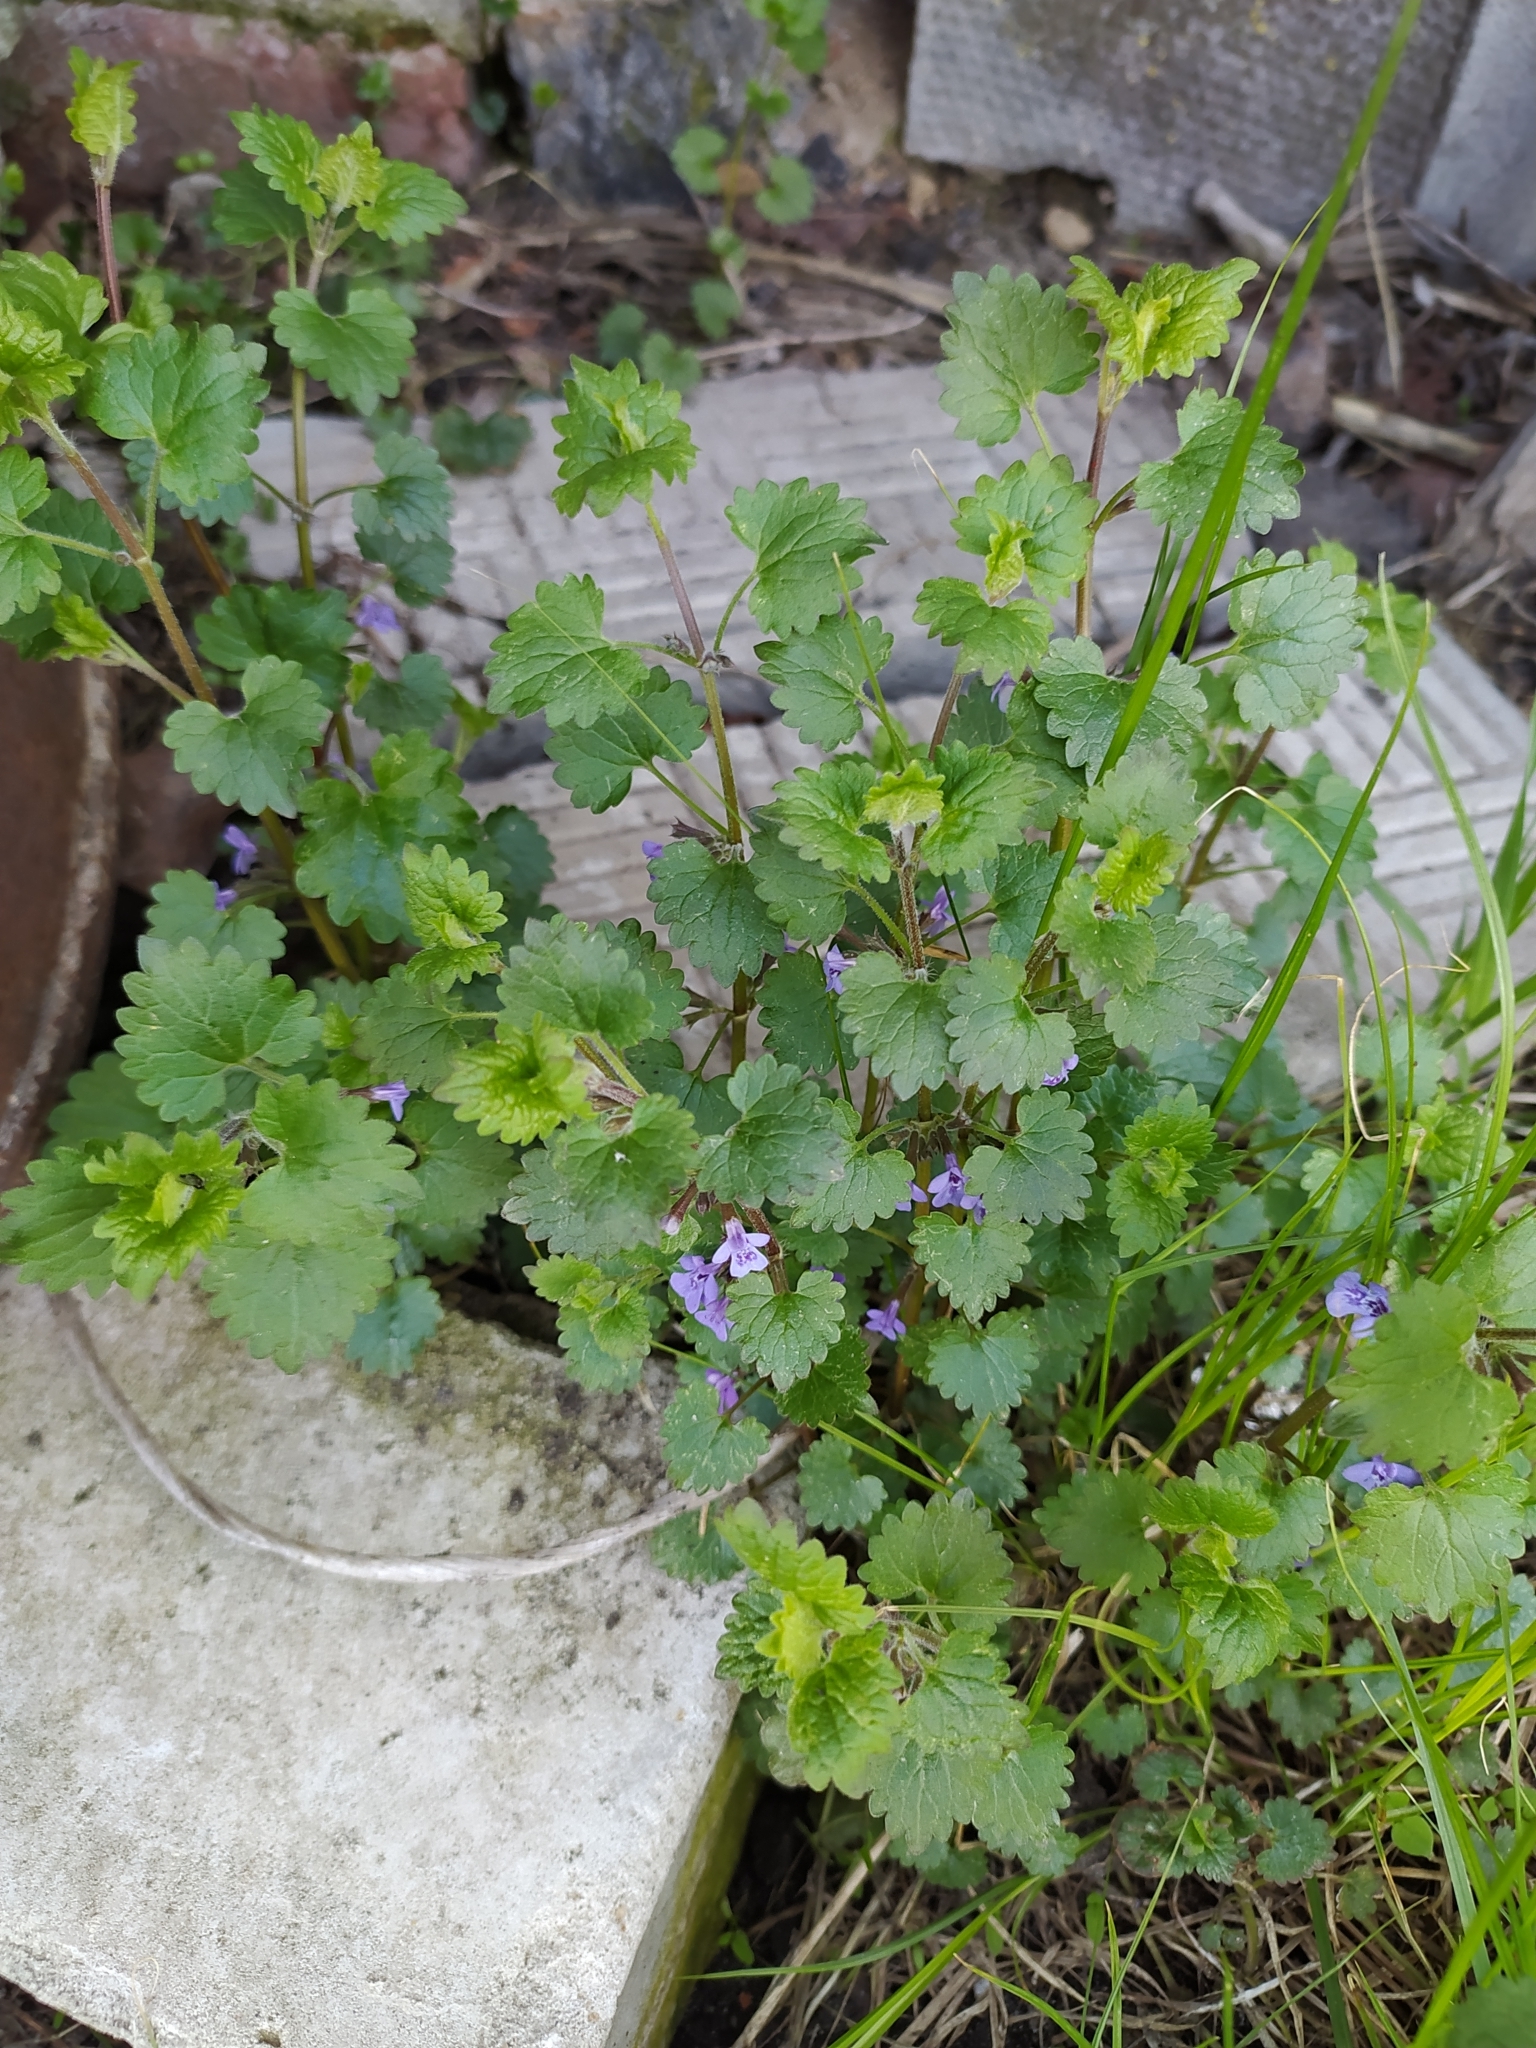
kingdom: Plantae
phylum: Tracheophyta
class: Magnoliopsida
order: Lamiales
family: Lamiaceae
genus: Glechoma
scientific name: Glechoma hederacea
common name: Ground ivy
